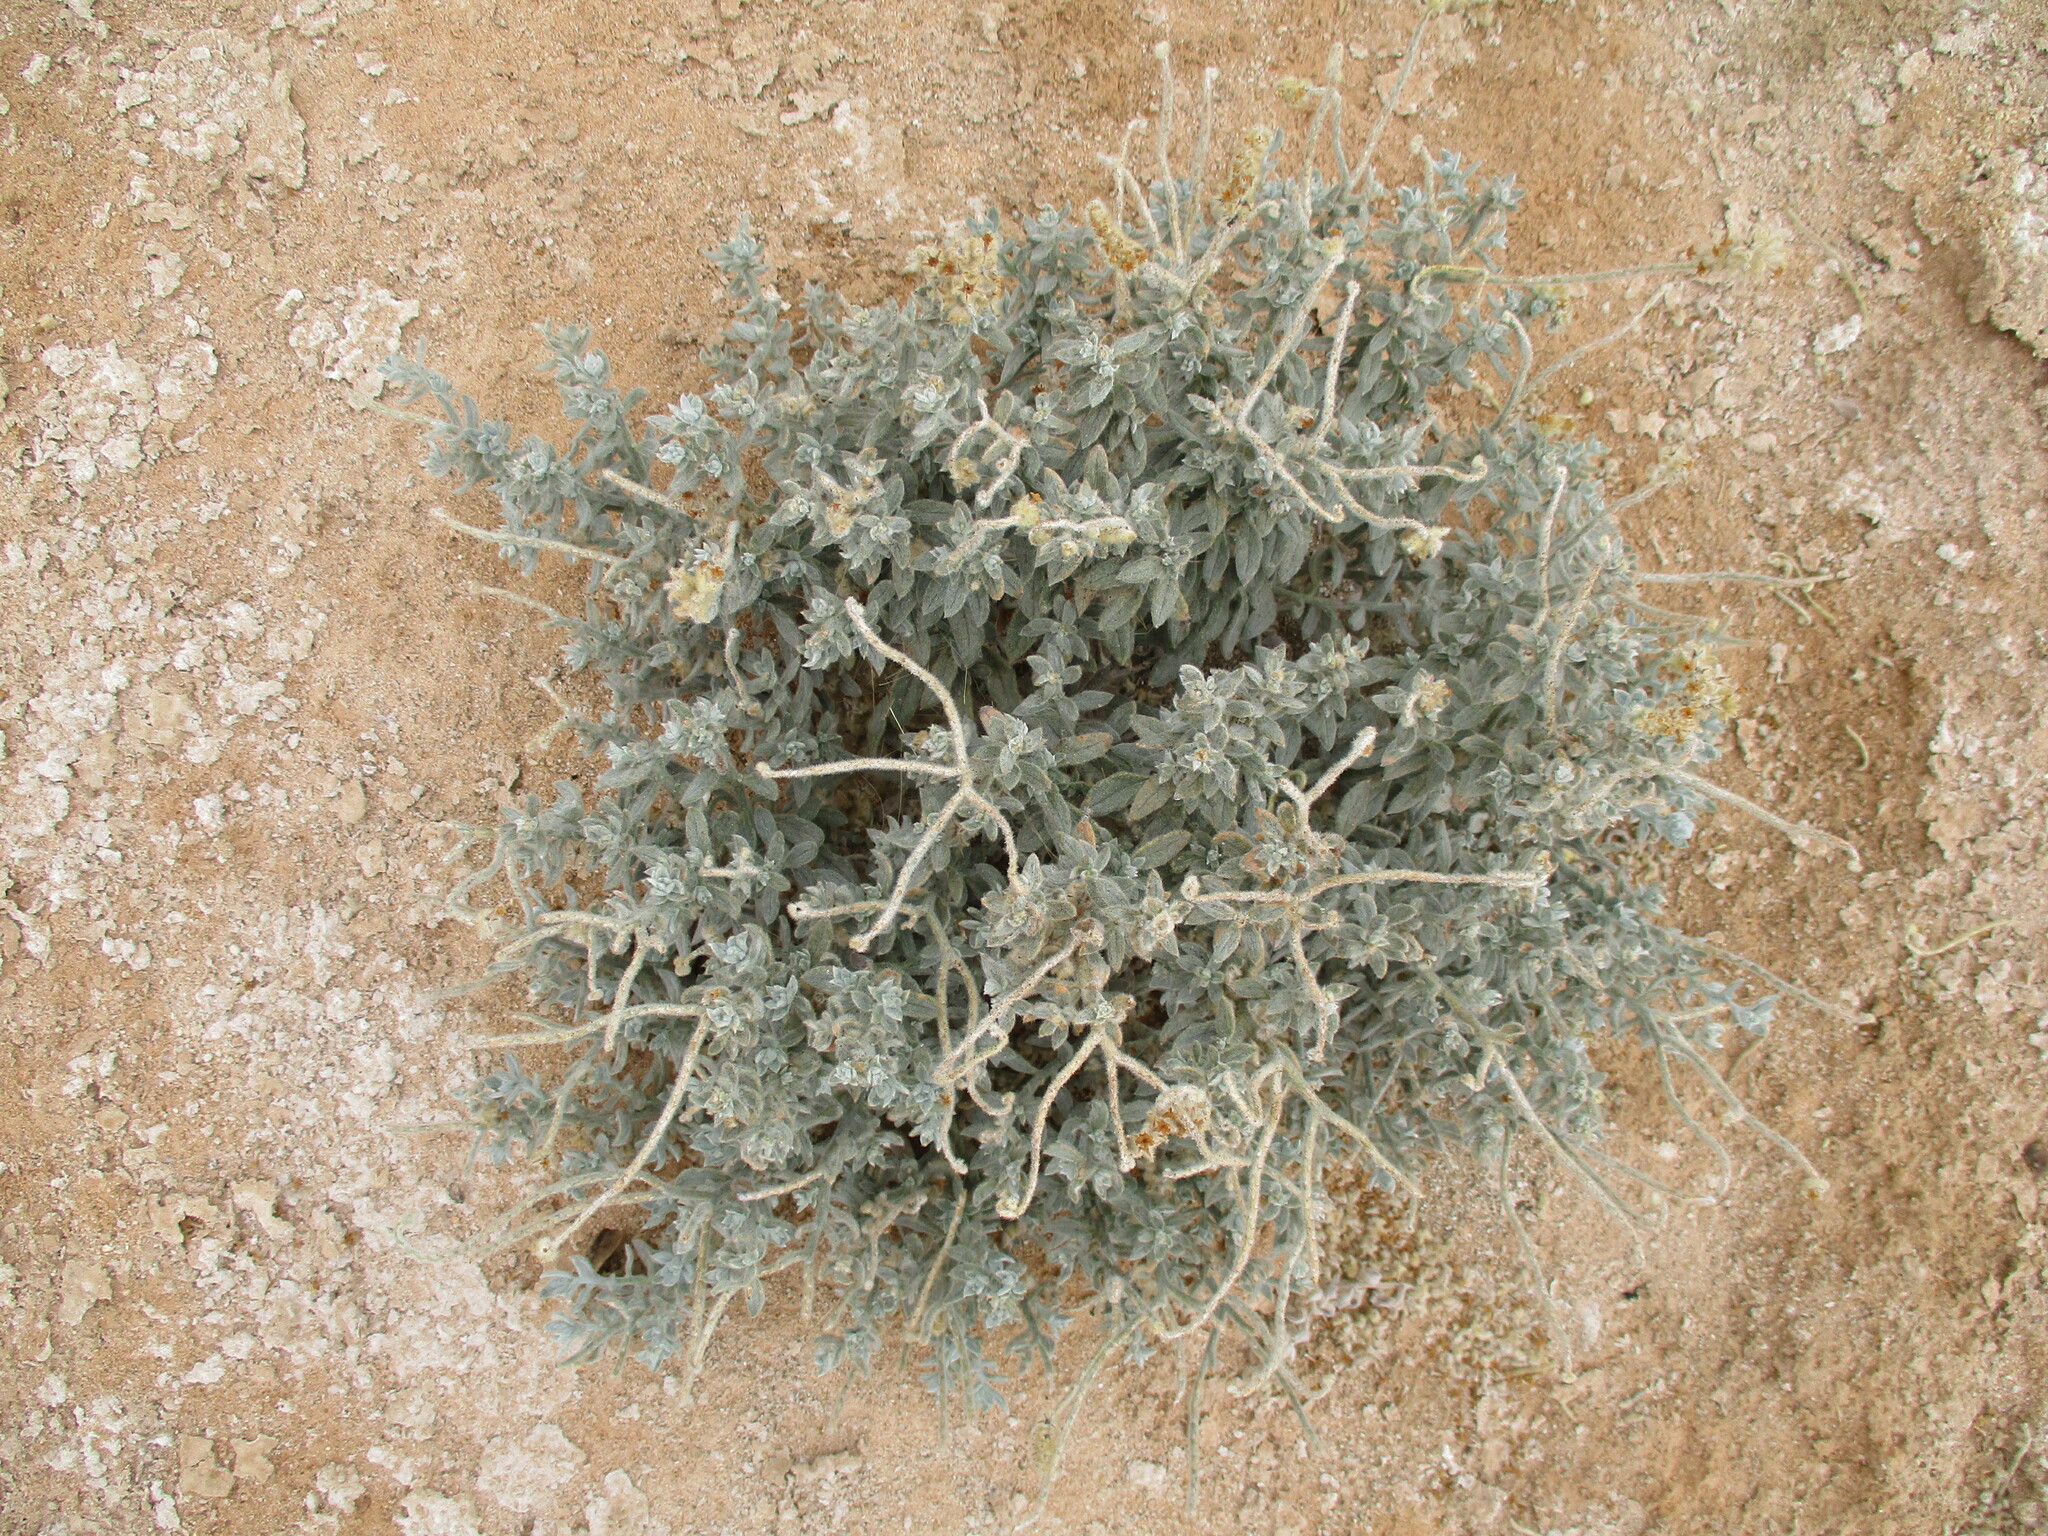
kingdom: Plantae
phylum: Tracheophyta
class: Magnoliopsida
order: Boraginales
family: Heliotropiaceae
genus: Heliotropium
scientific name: Heliotropium oliverianum
